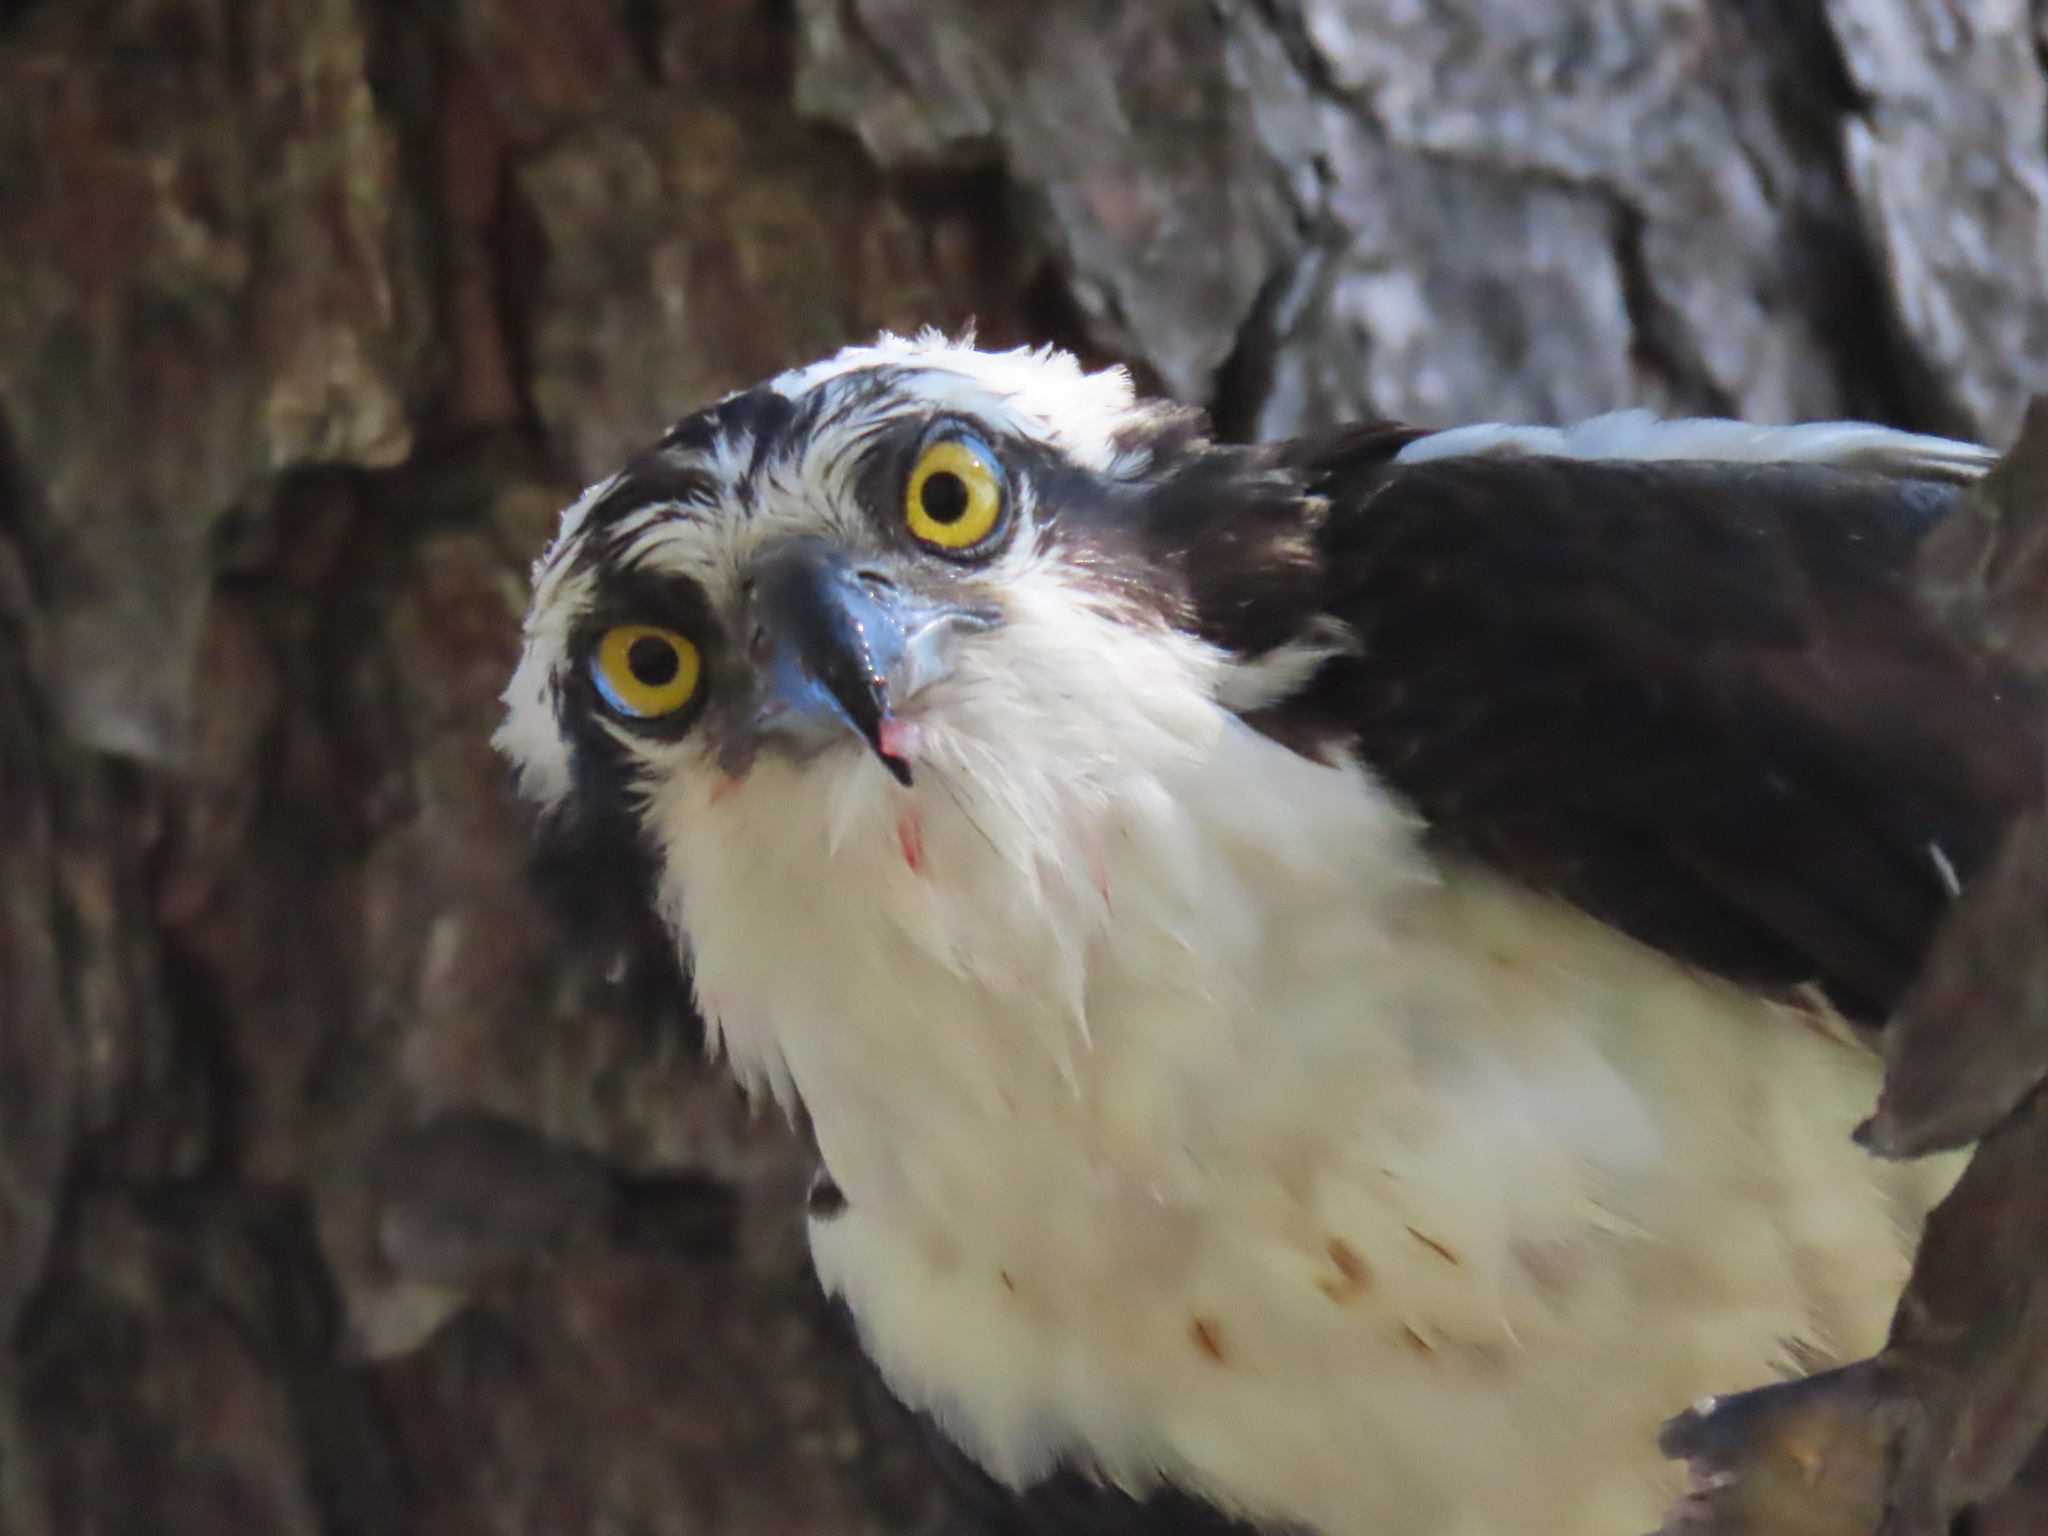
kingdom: Animalia
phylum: Chordata
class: Aves
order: Accipitriformes
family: Pandionidae
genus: Pandion
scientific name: Pandion haliaetus
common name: Osprey
